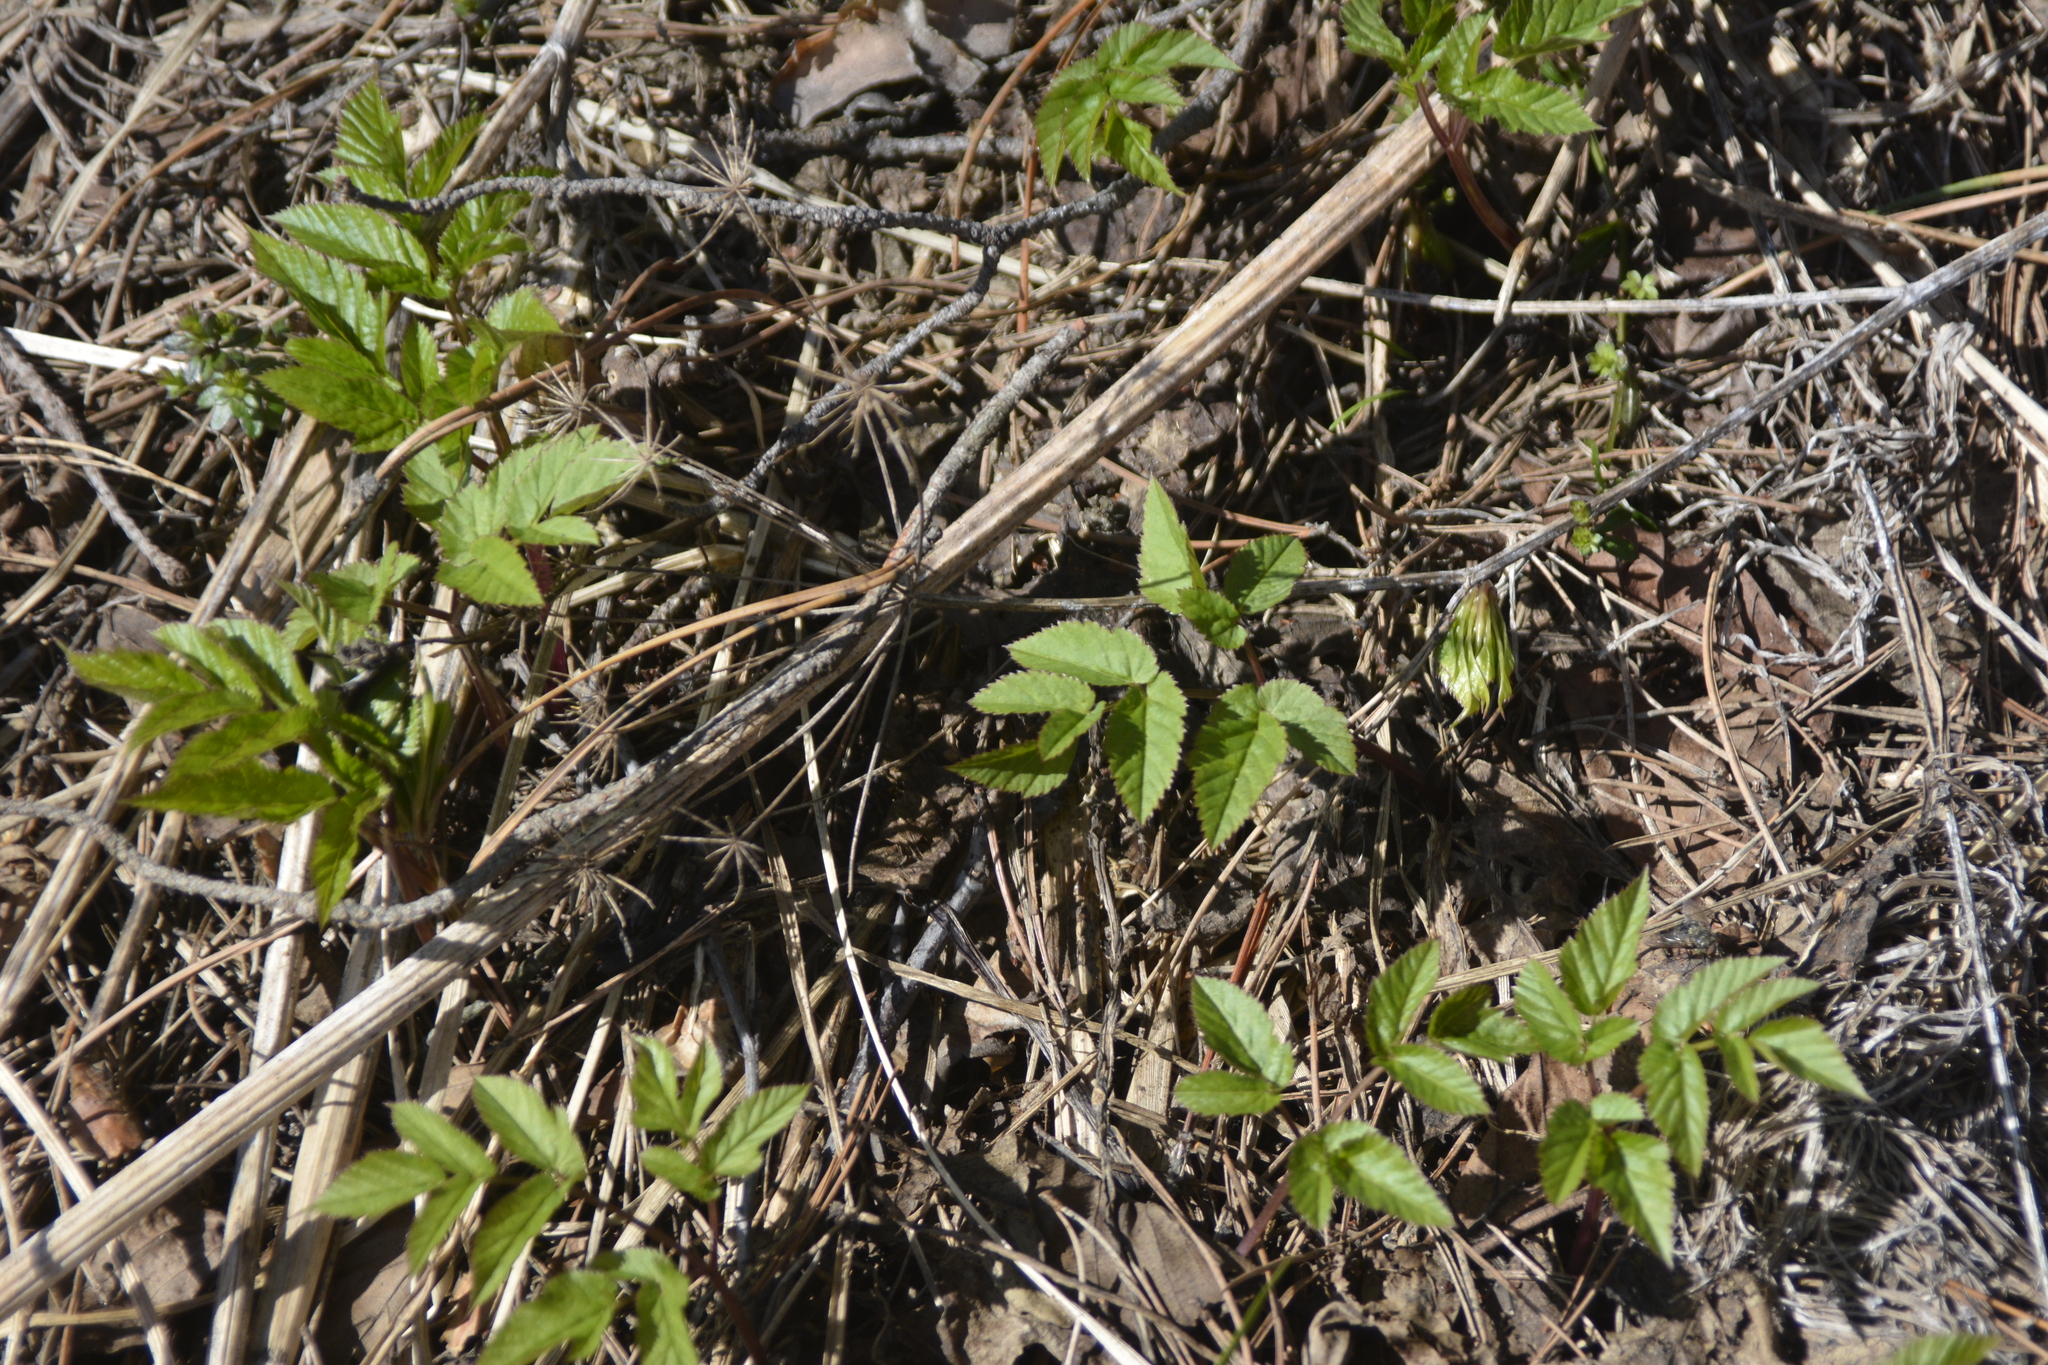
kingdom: Plantae
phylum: Tracheophyta
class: Magnoliopsida
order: Apiales
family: Apiaceae
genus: Aegopodium
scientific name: Aegopodium podagraria
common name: Ground-elder
